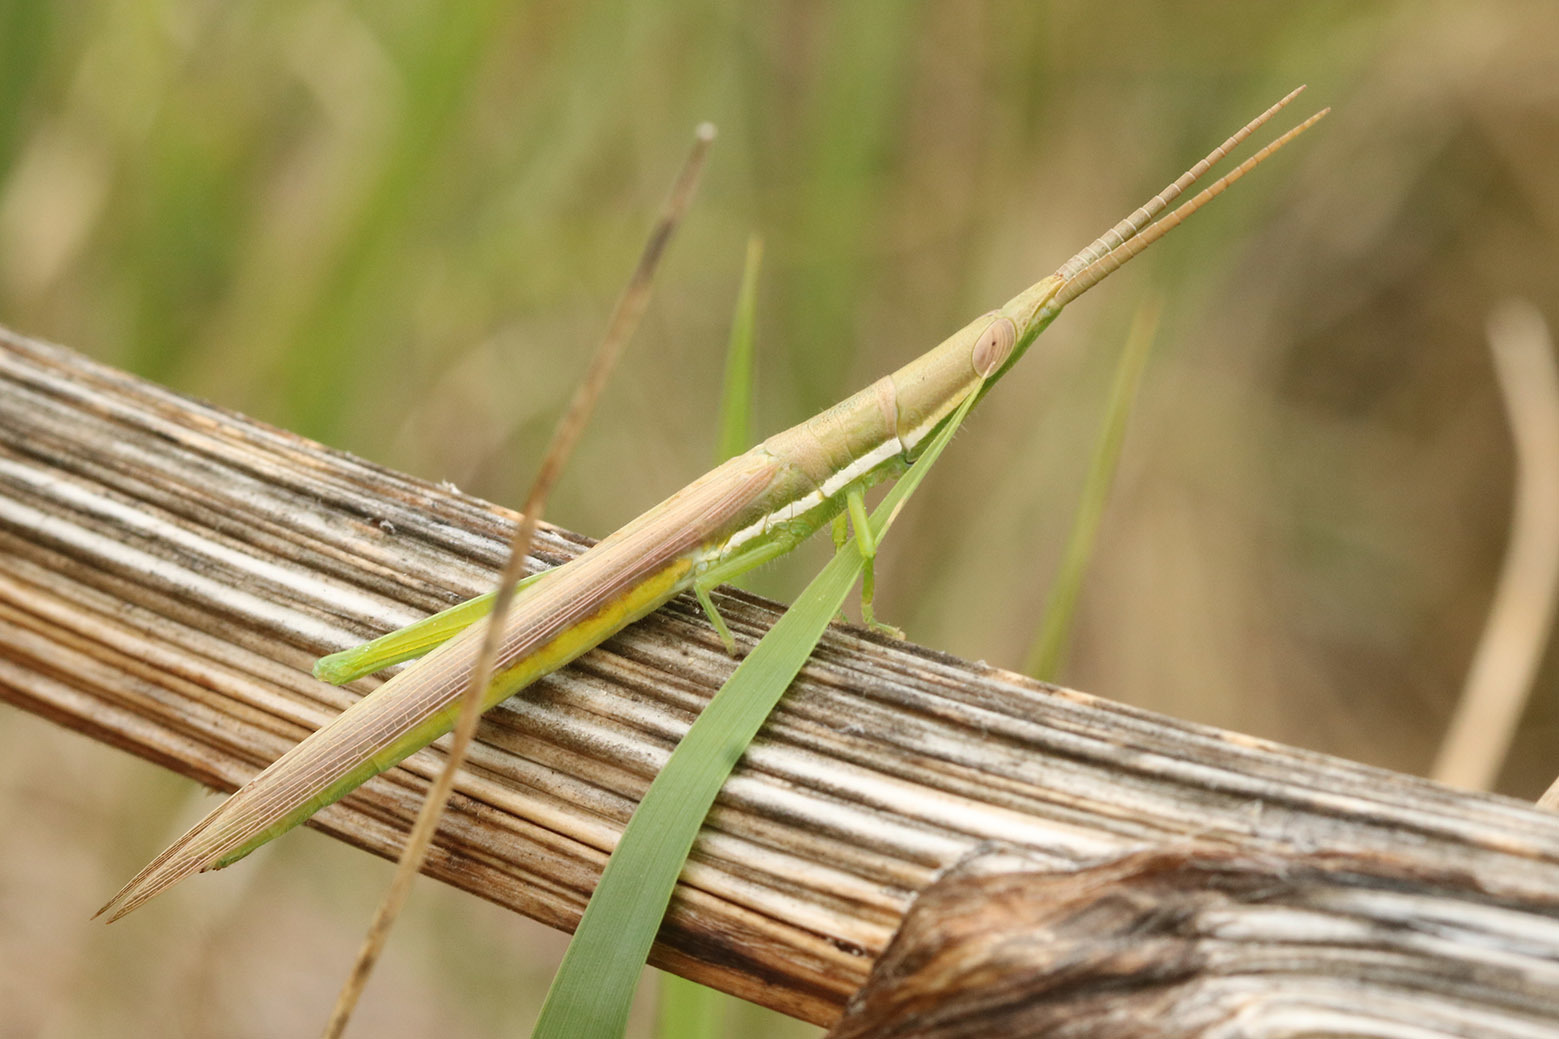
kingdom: Animalia
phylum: Arthropoda
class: Insecta
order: Orthoptera
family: Acrididae
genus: Leptysma
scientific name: Leptysma argentina
